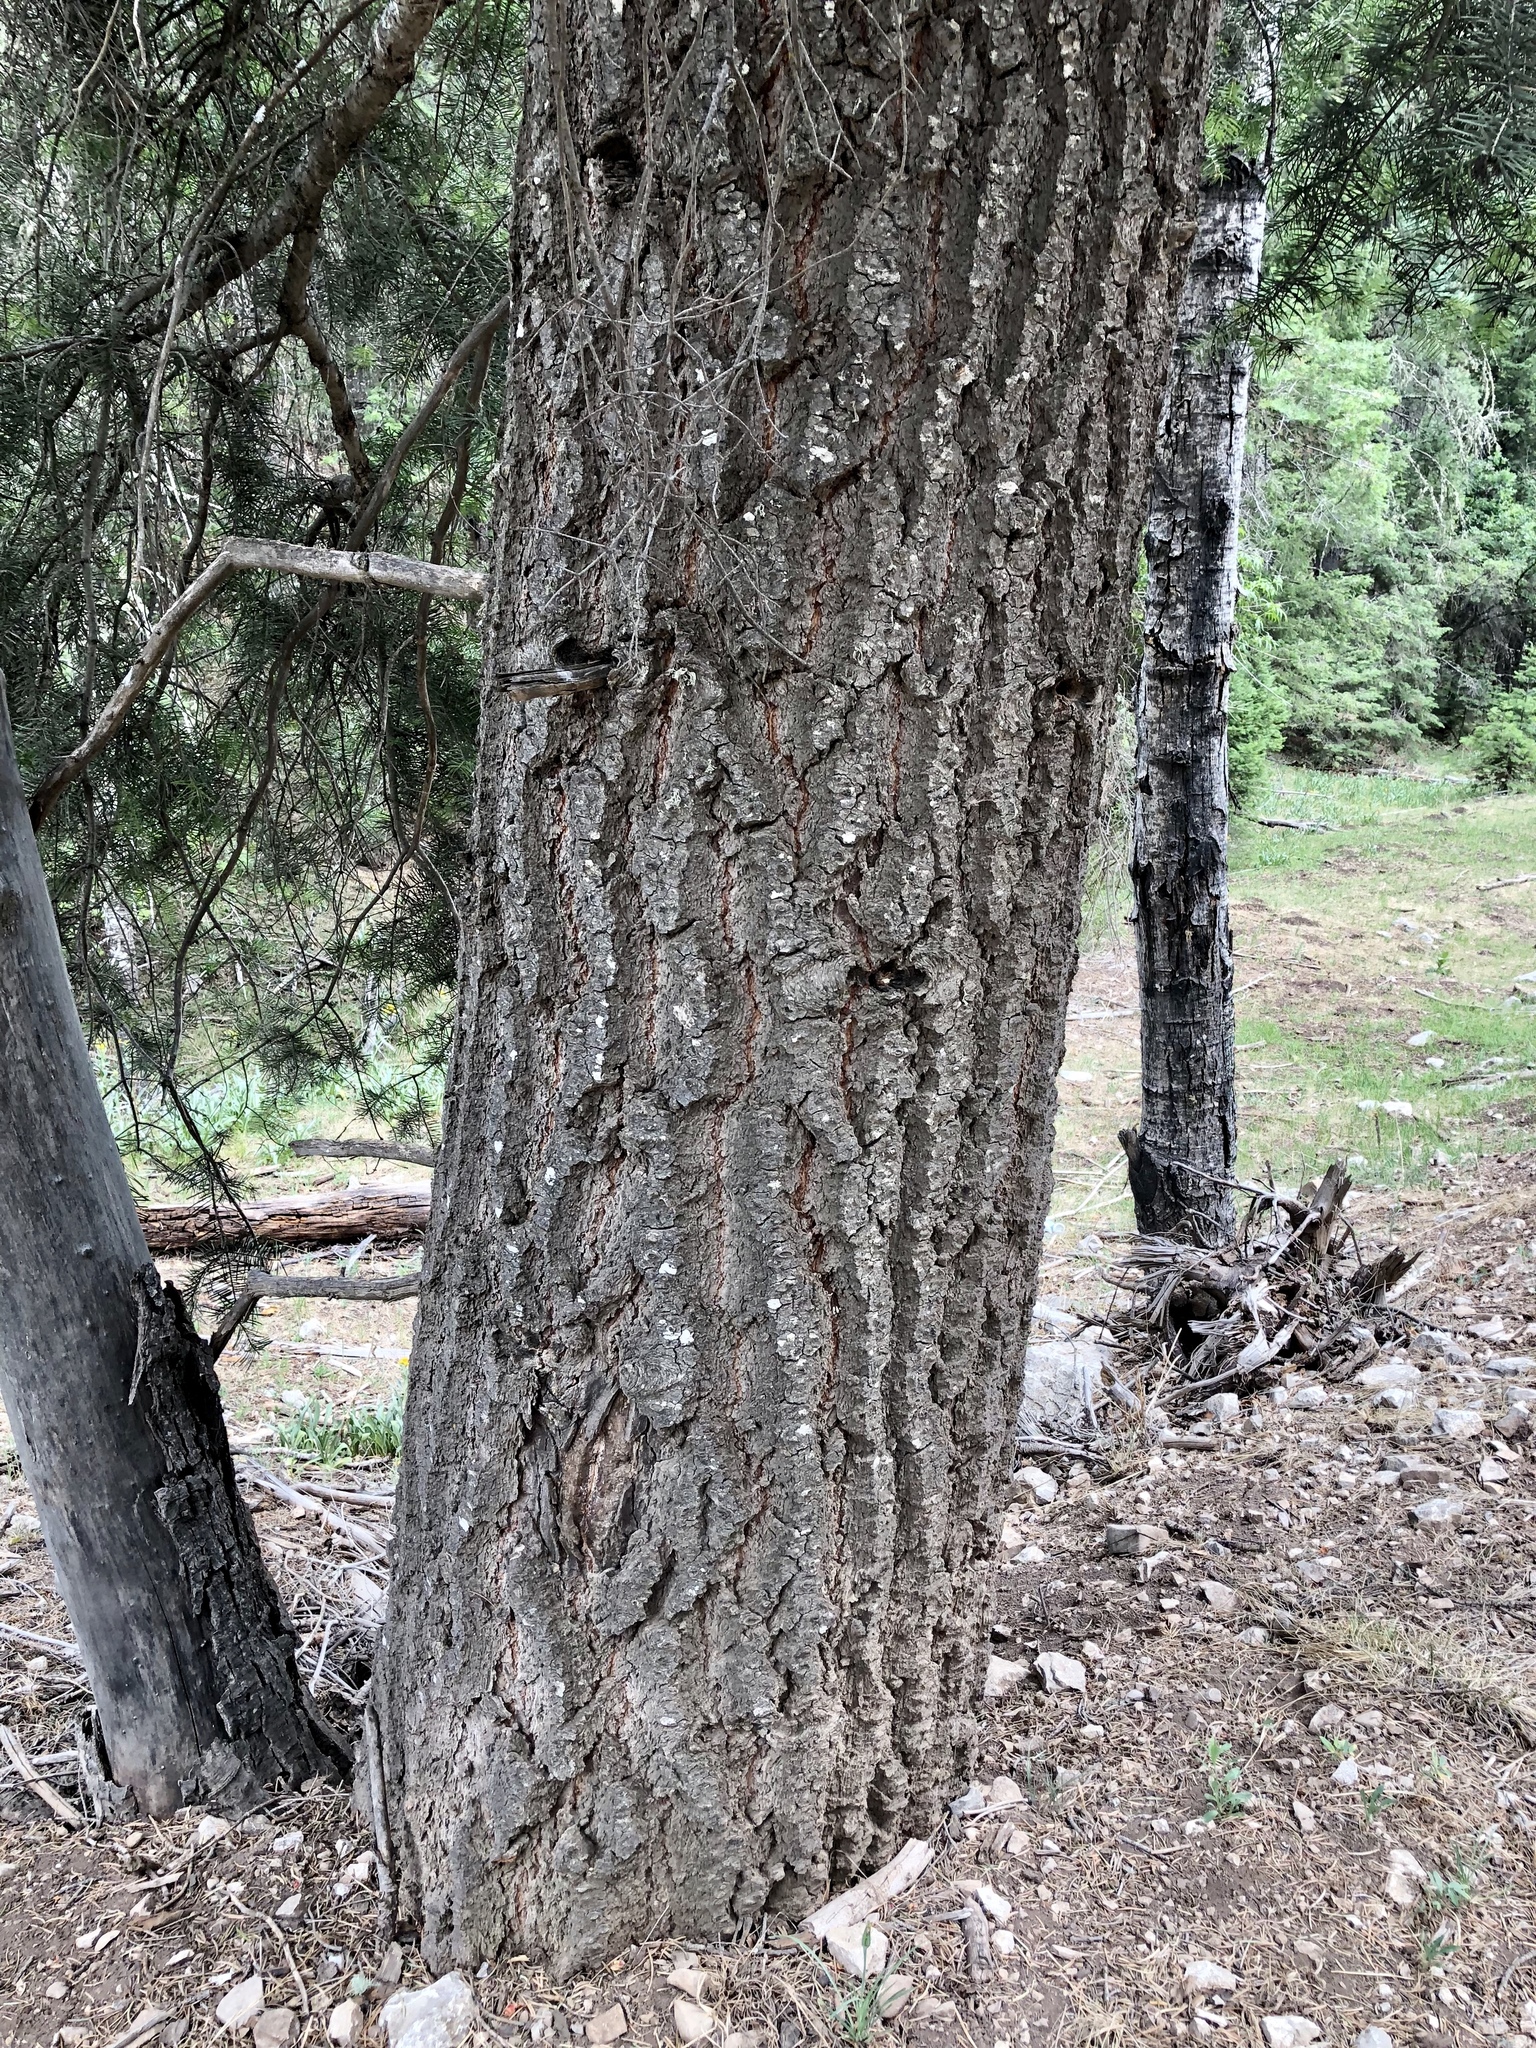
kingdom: Plantae
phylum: Tracheophyta
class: Pinopsida
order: Pinales
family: Pinaceae
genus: Abies
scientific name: Abies concolor
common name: Colorado fir
